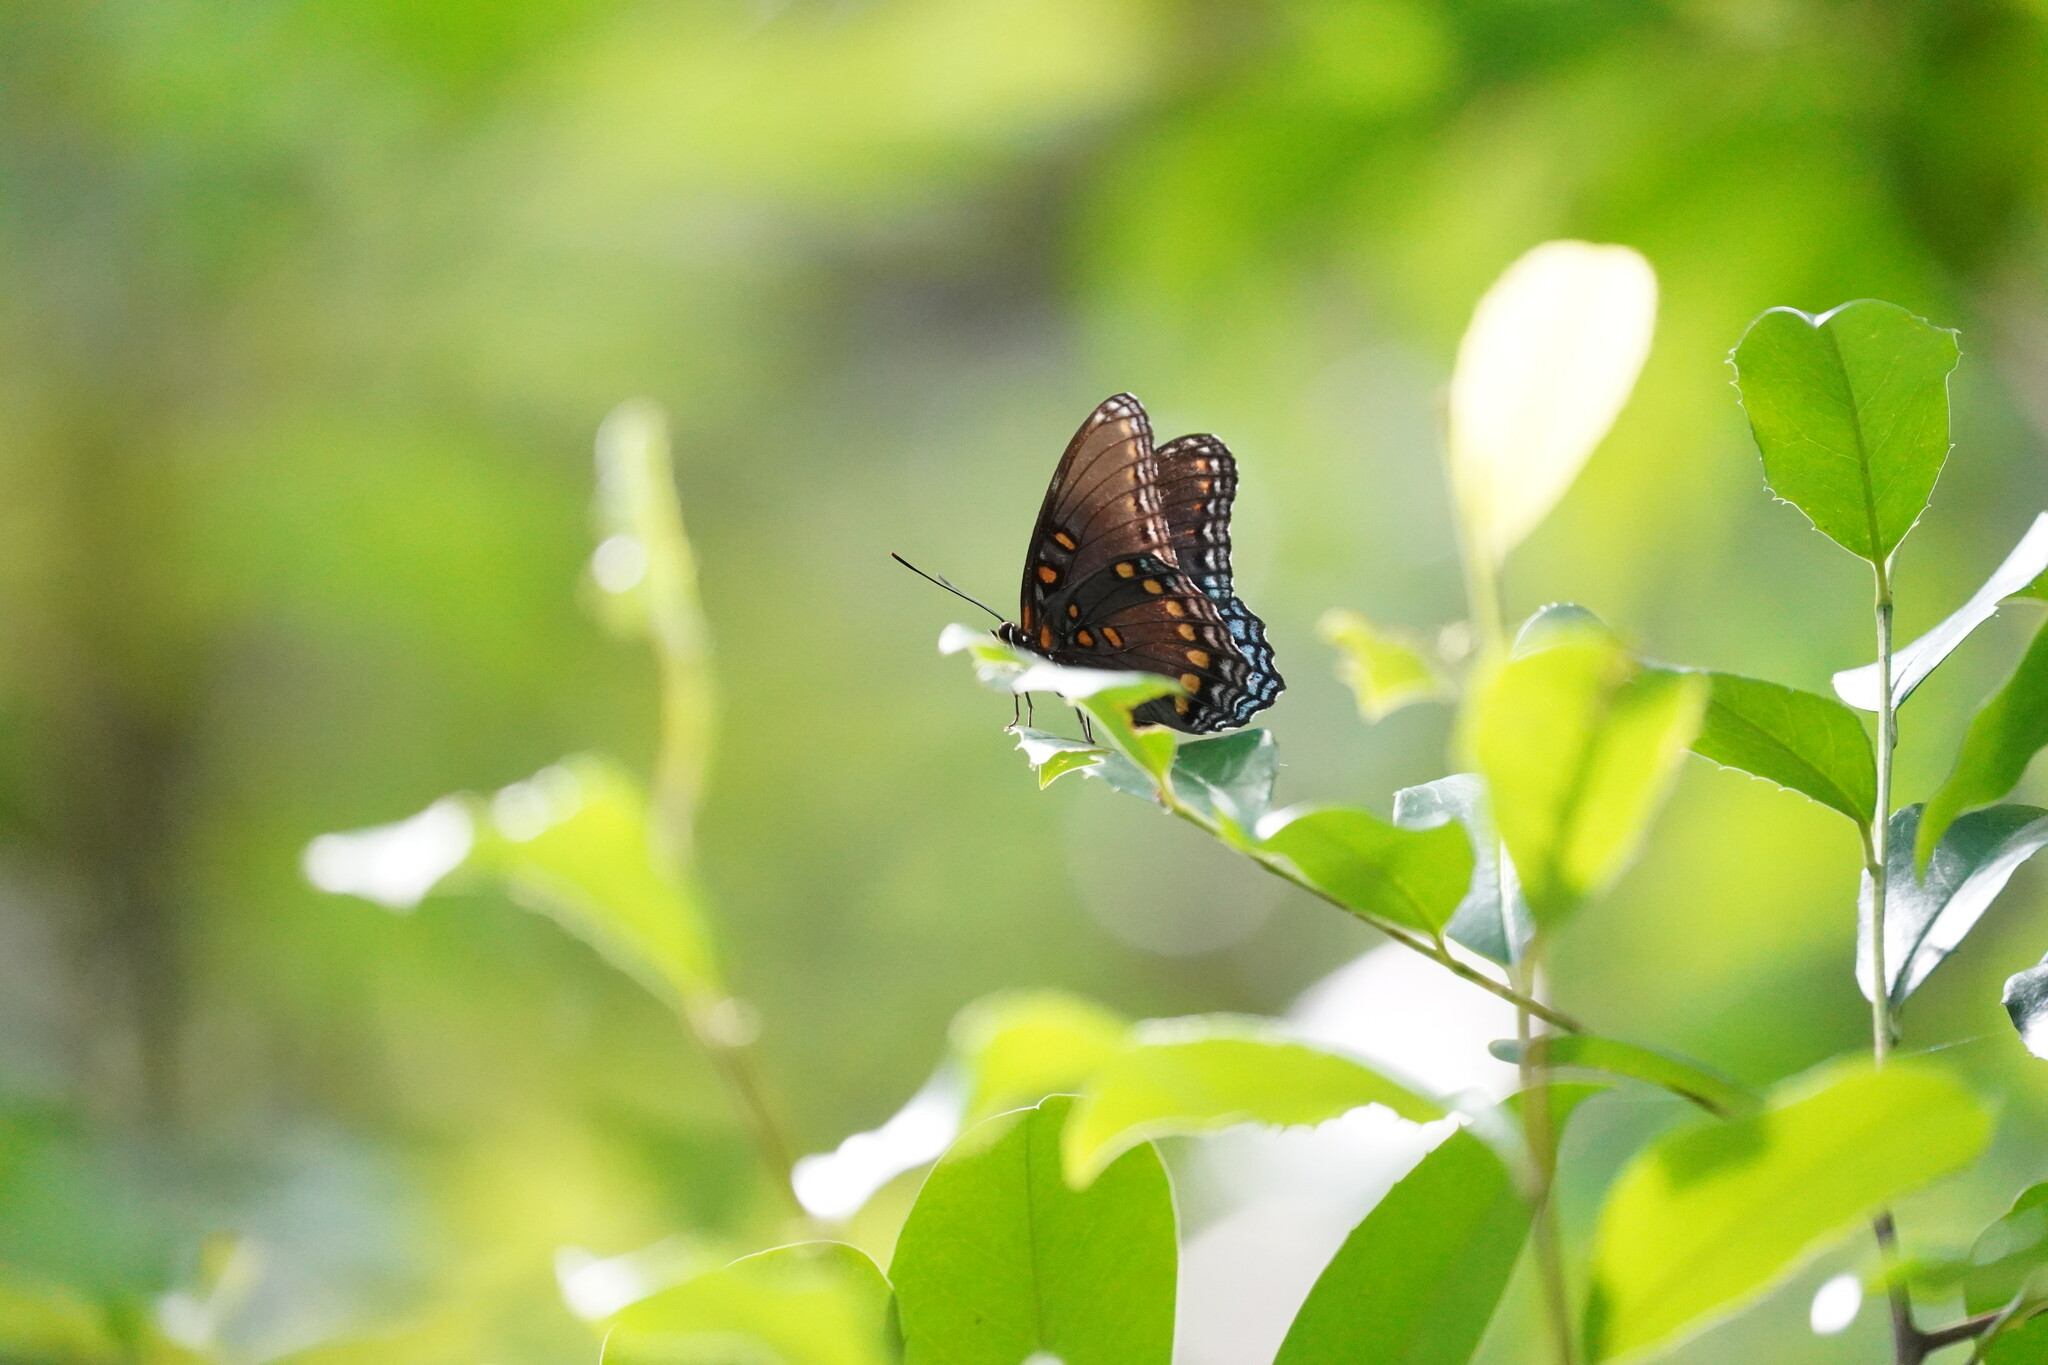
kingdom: Animalia
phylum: Arthropoda
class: Insecta
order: Lepidoptera
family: Nymphalidae
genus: Limenitis
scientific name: Limenitis arthemis
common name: Red-spotted admiral
